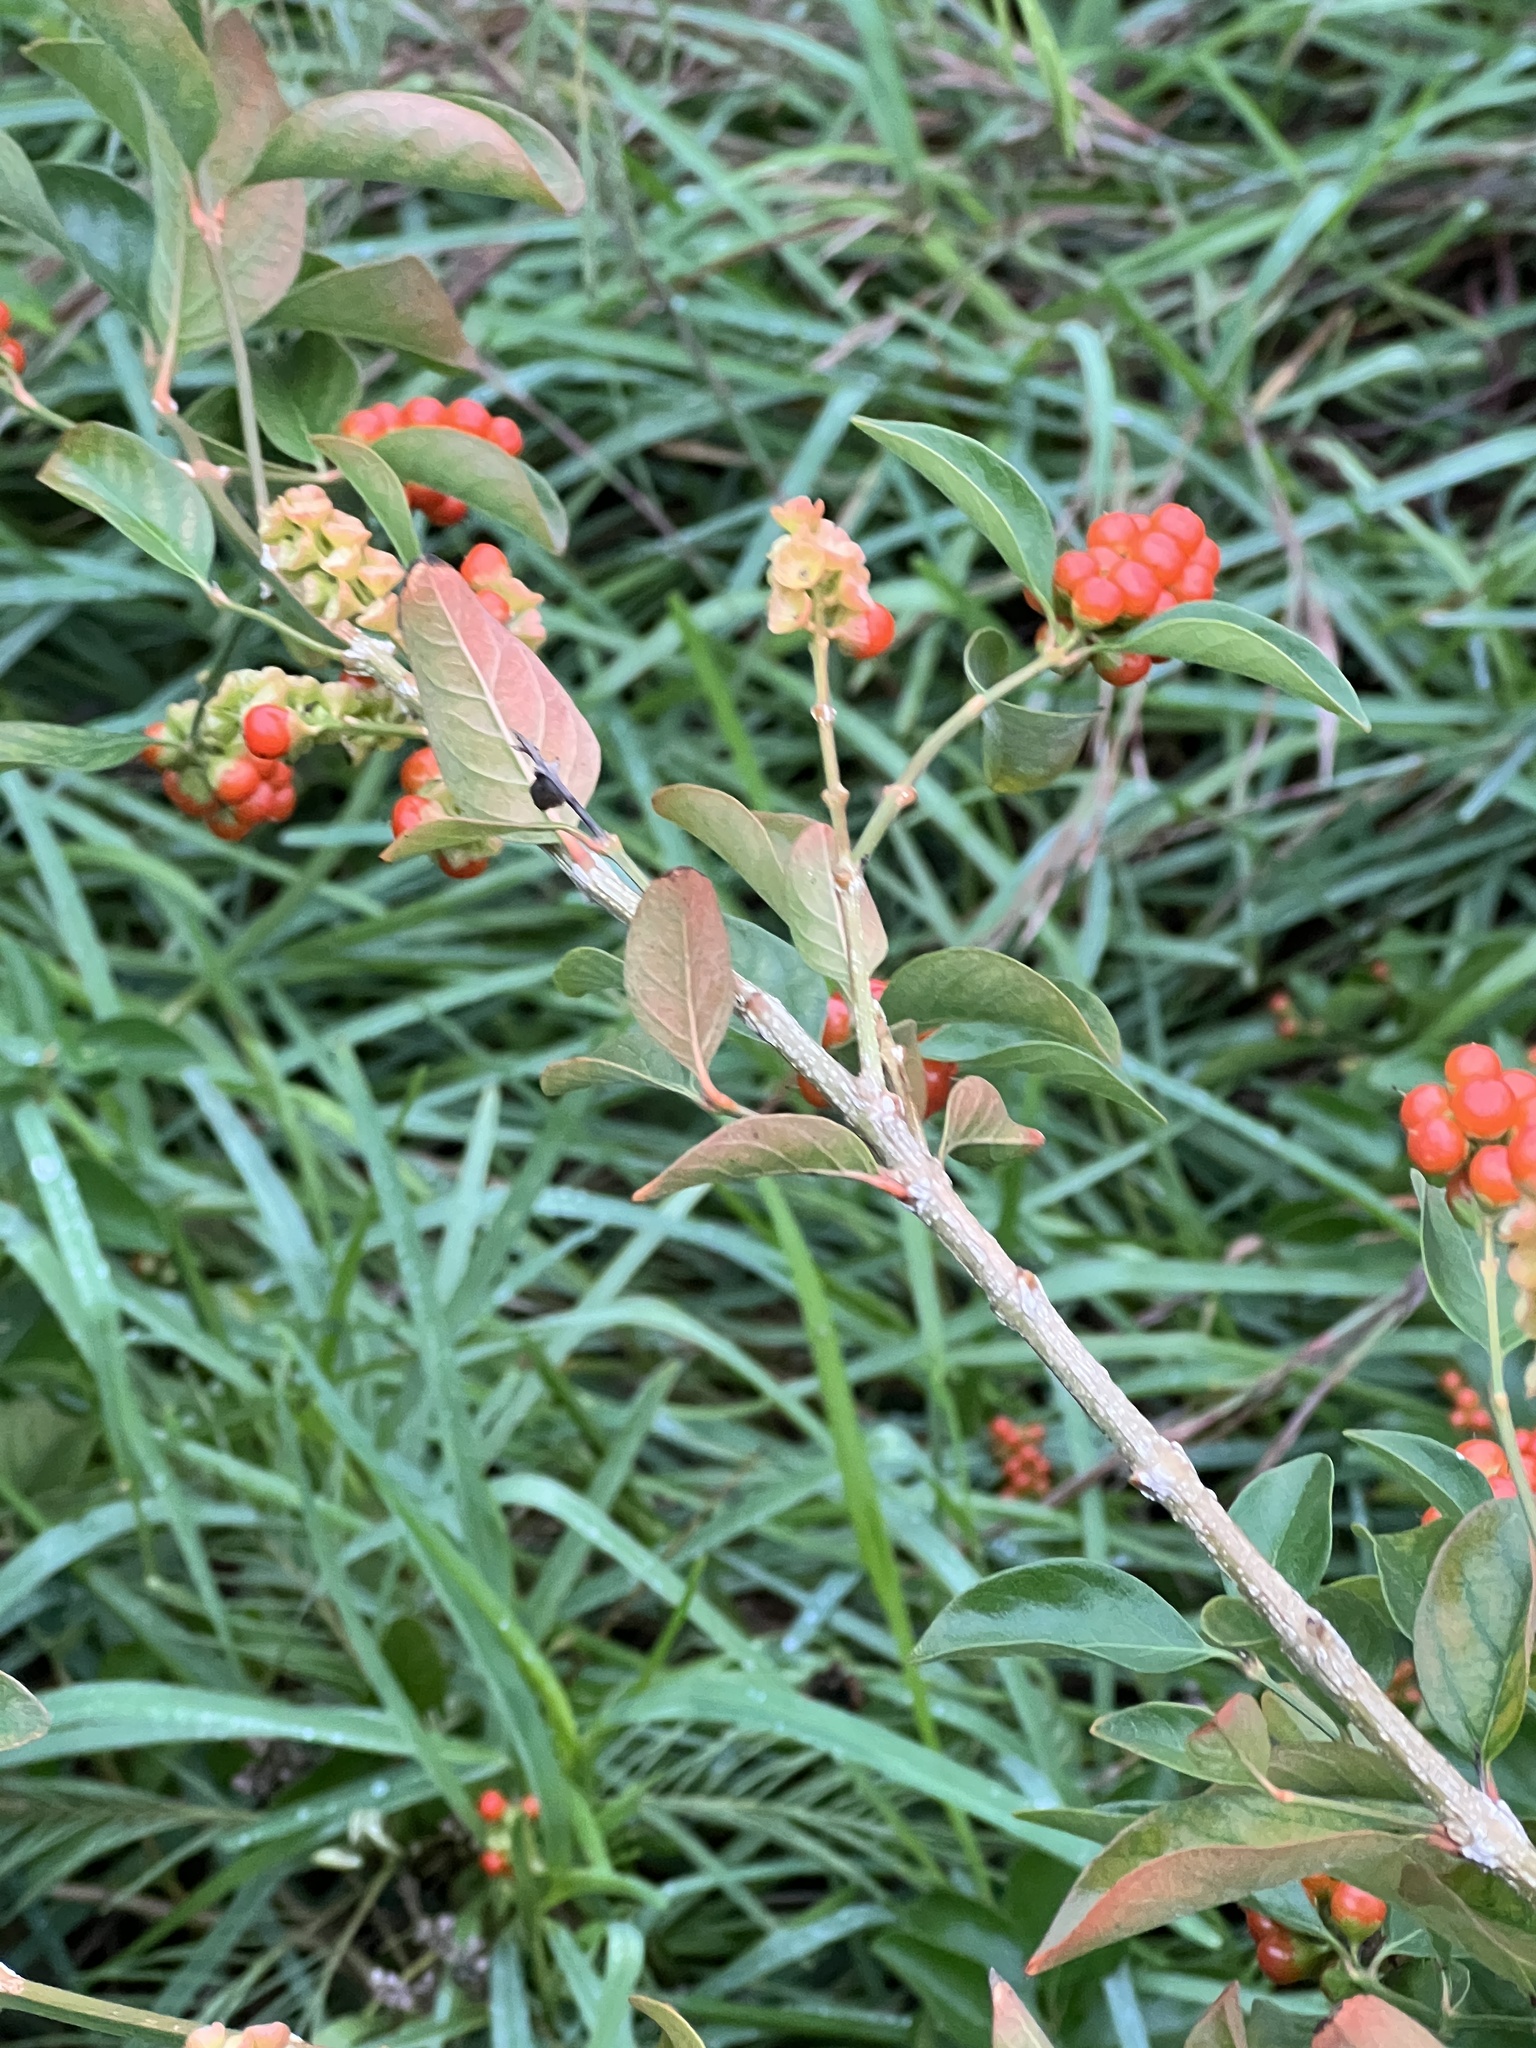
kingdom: Plantae
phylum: Tracheophyta
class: Magnoliopsida
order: Lamiales
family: Verbenaceae
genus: Citharexylum
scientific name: Citharexylum berlandieri
